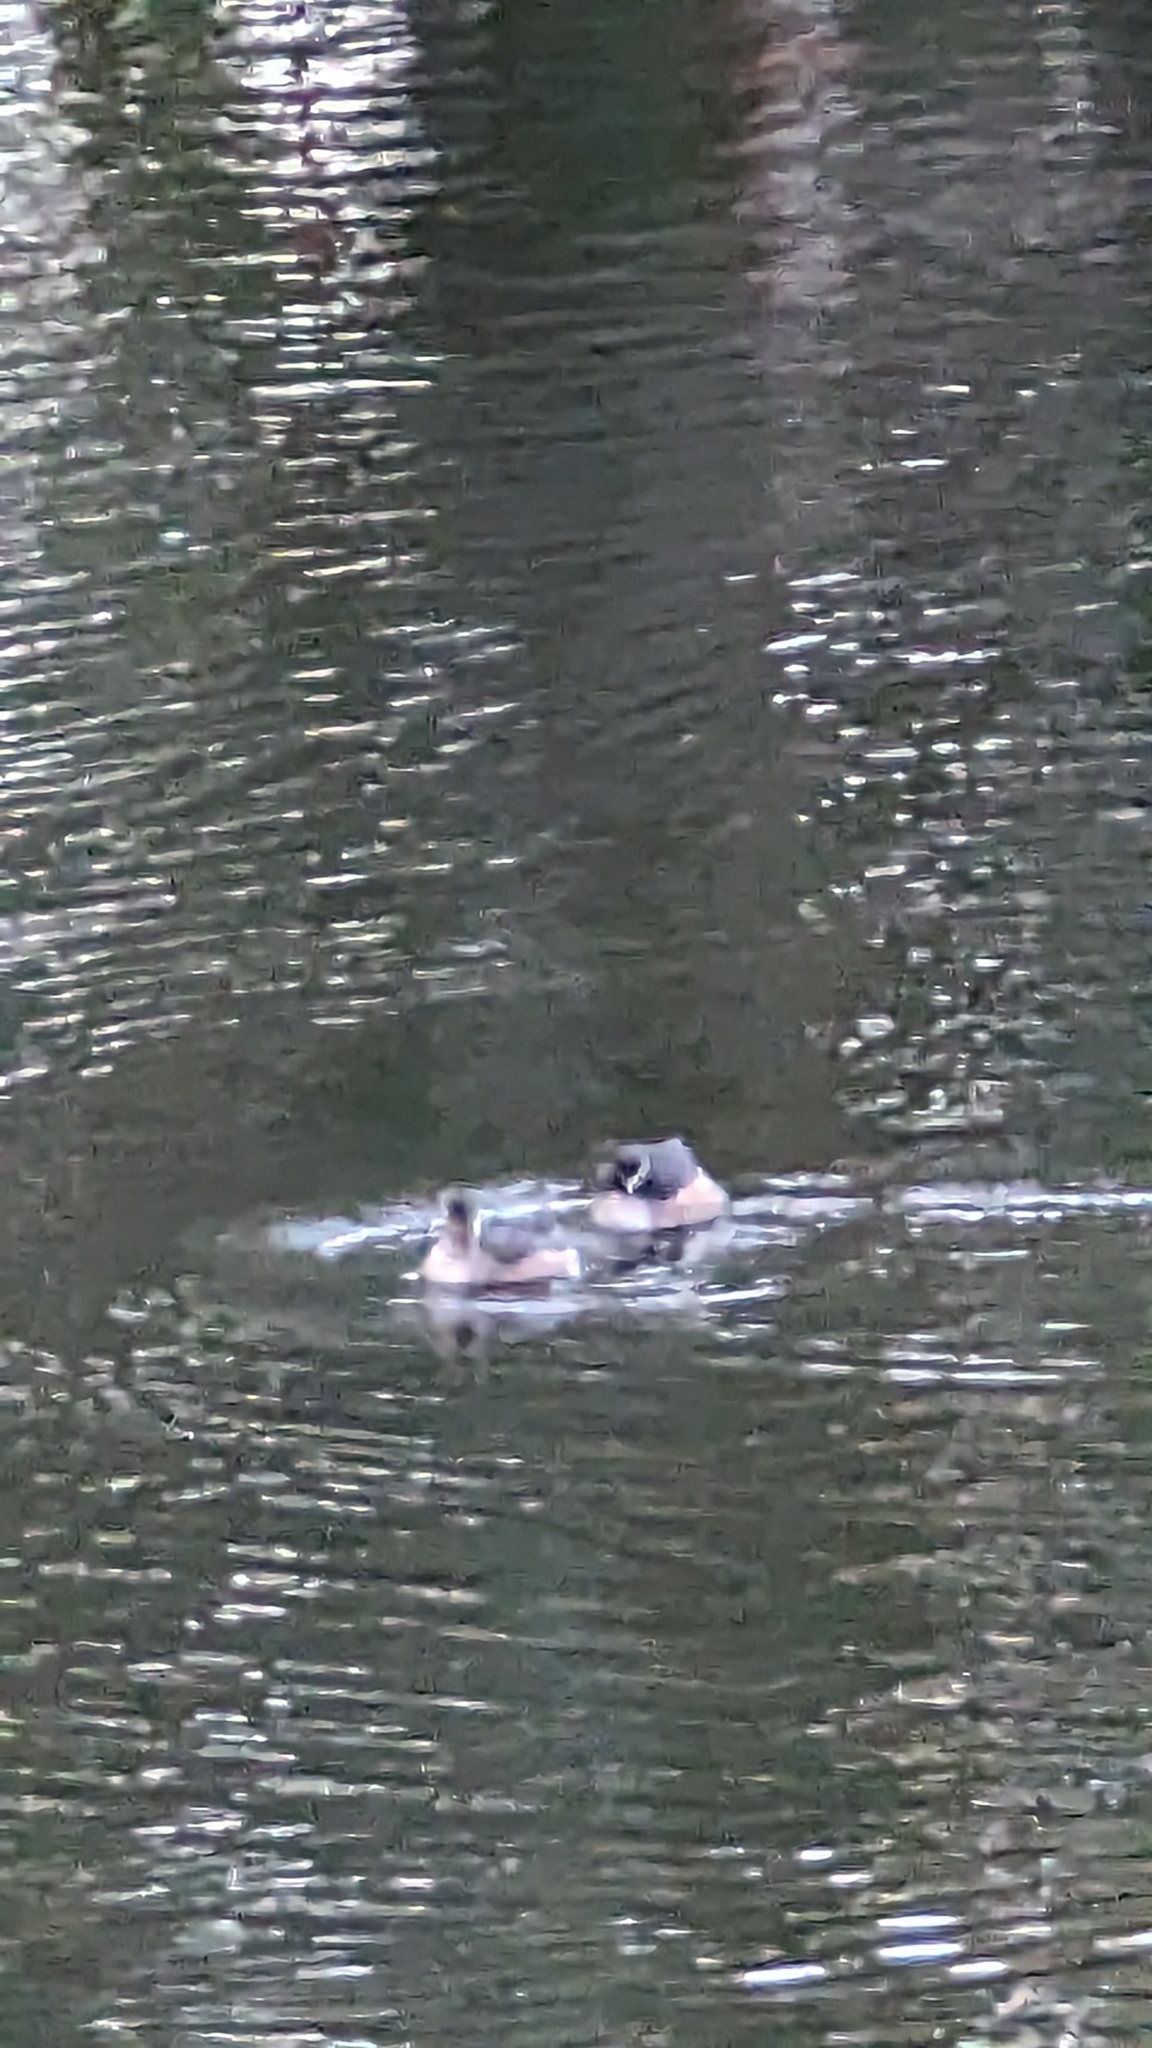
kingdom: Animalia
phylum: Chordata
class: Aves
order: Podicipediformes
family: Podicipedidae
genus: Tachybaptus
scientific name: Tachybaptus novaehollandiae
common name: Australasian grebe
